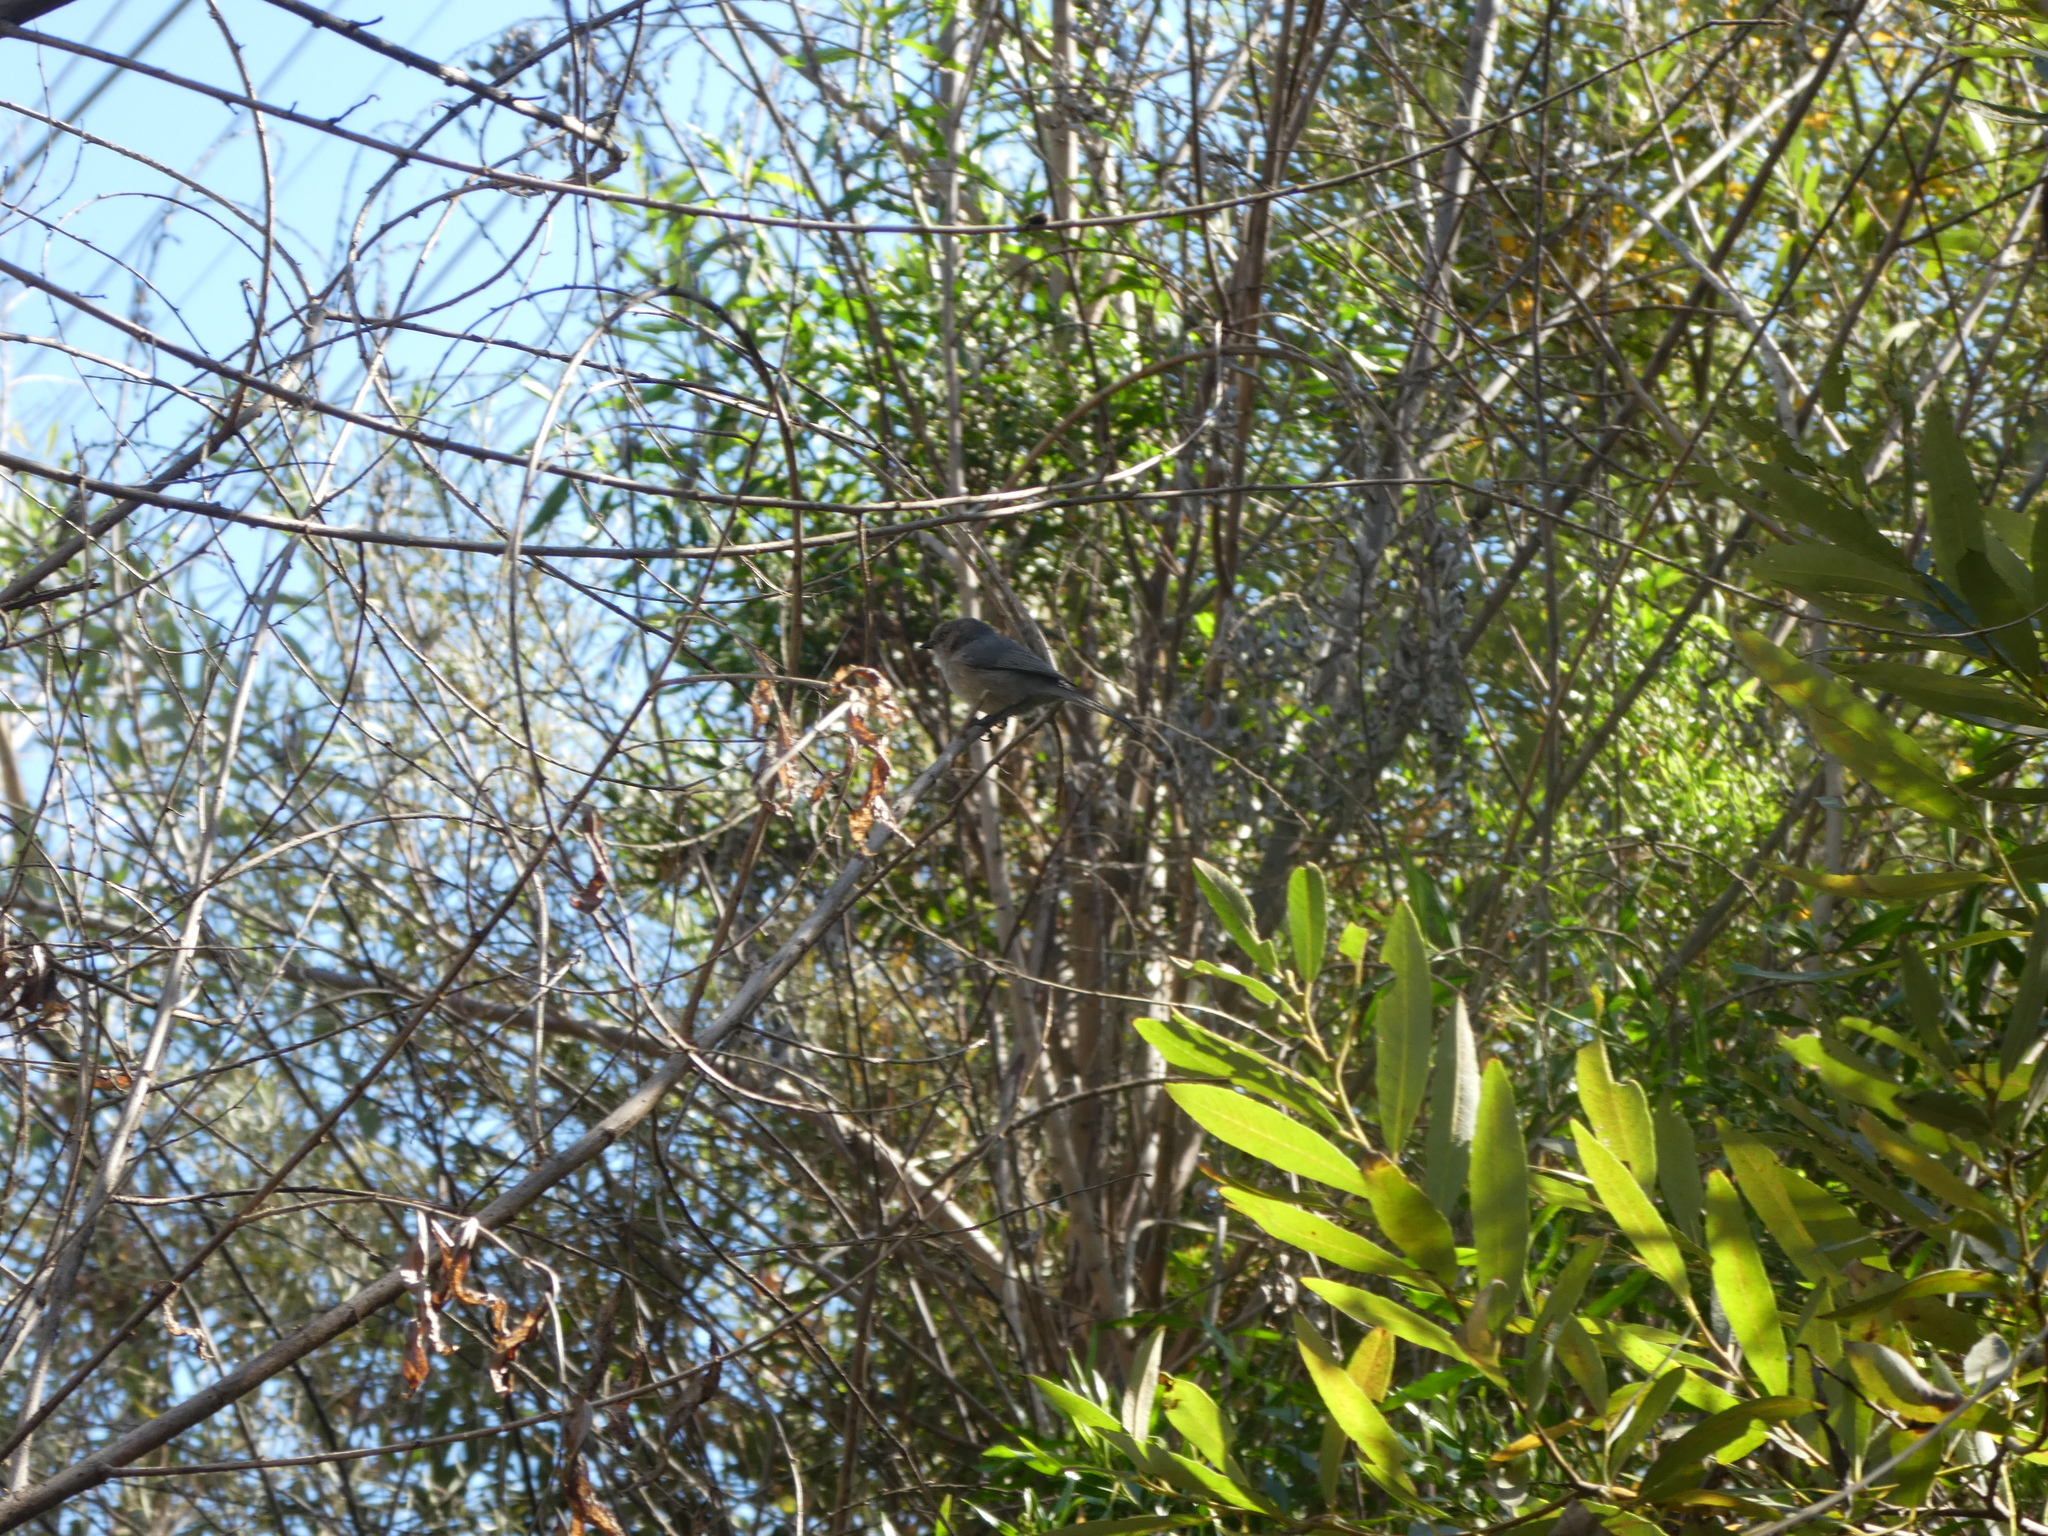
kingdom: Animalia
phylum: Chordata
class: Aves
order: Passeriformes
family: Aegithalidae
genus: Psaltriparus
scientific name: Psaltriparus minimus
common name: American bushtit
